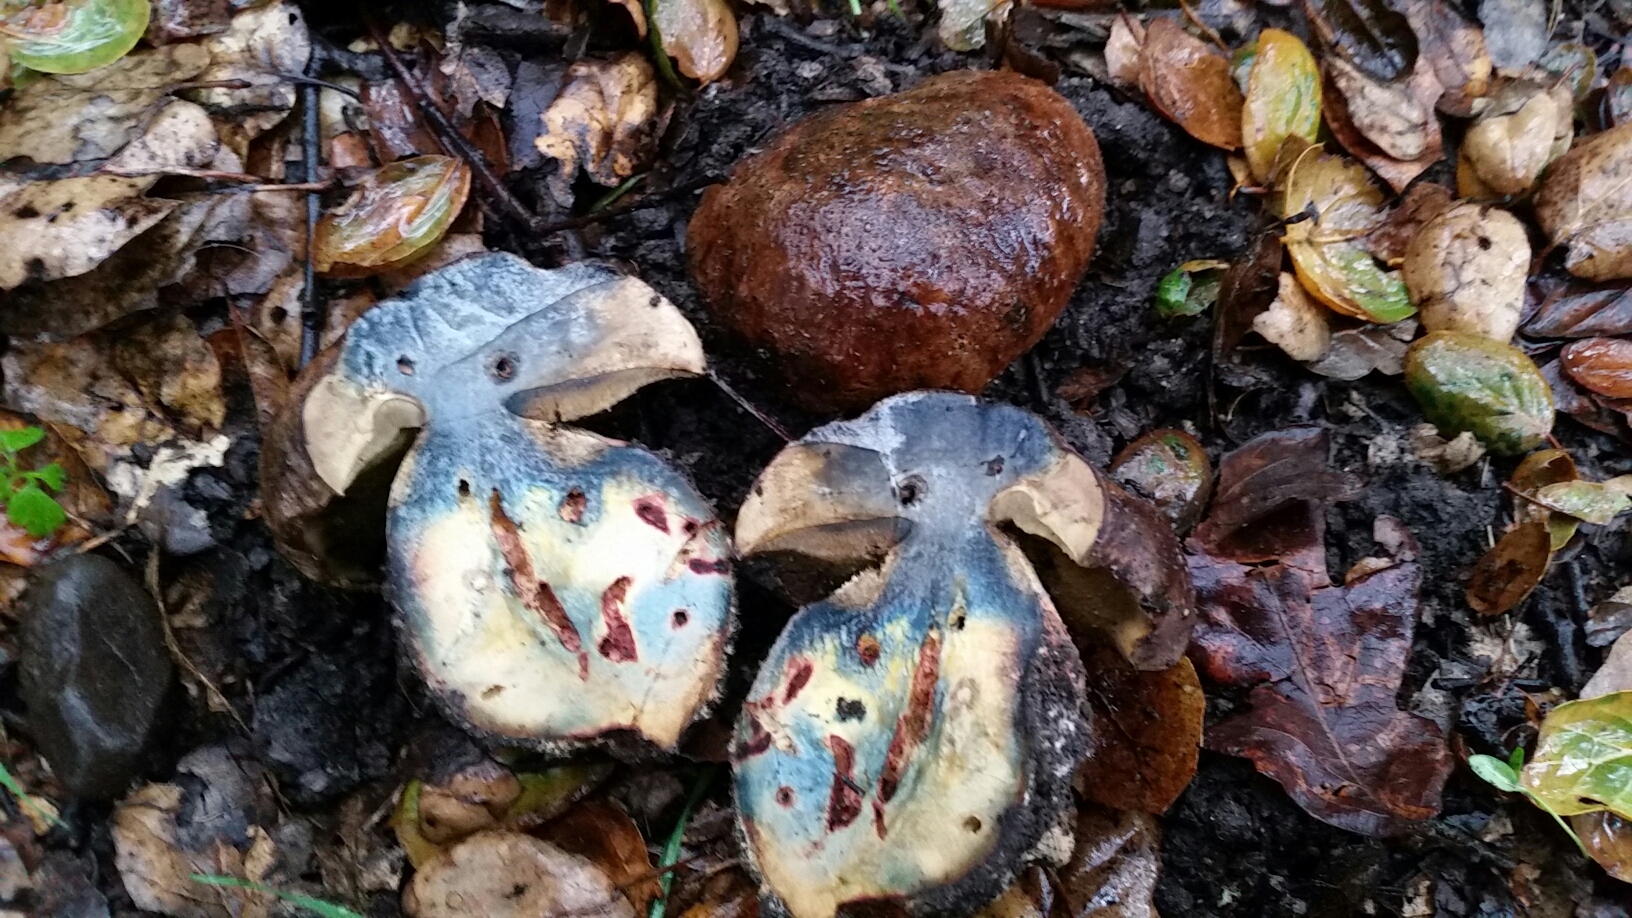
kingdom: Fungi
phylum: Basidiomycota
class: Agaricomycetes
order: Boletales
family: Boletaceae
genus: Rubroboletus
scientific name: Rubroboletus eastwoodiae
